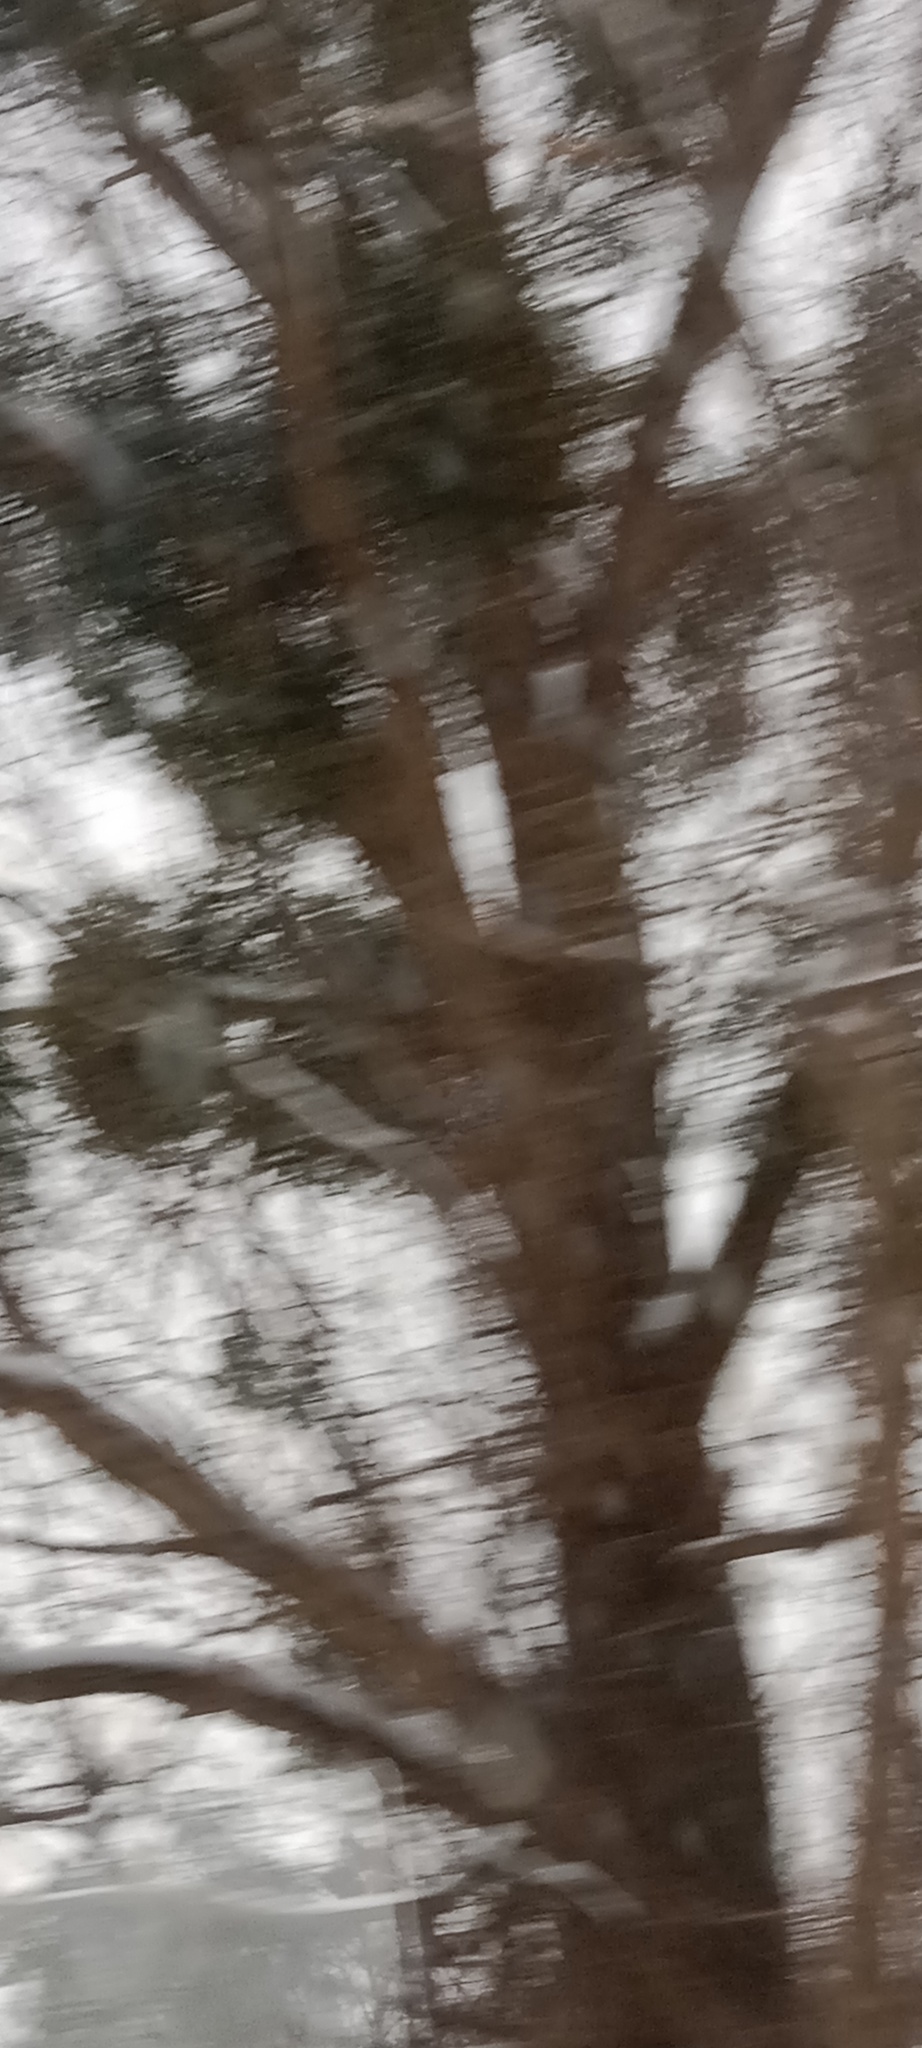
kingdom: Plantae
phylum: Tracheophyta
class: Magnoliopsida
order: Santalales
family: Viscaceae
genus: Viscum
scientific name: Viscum album
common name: Mistletoe
